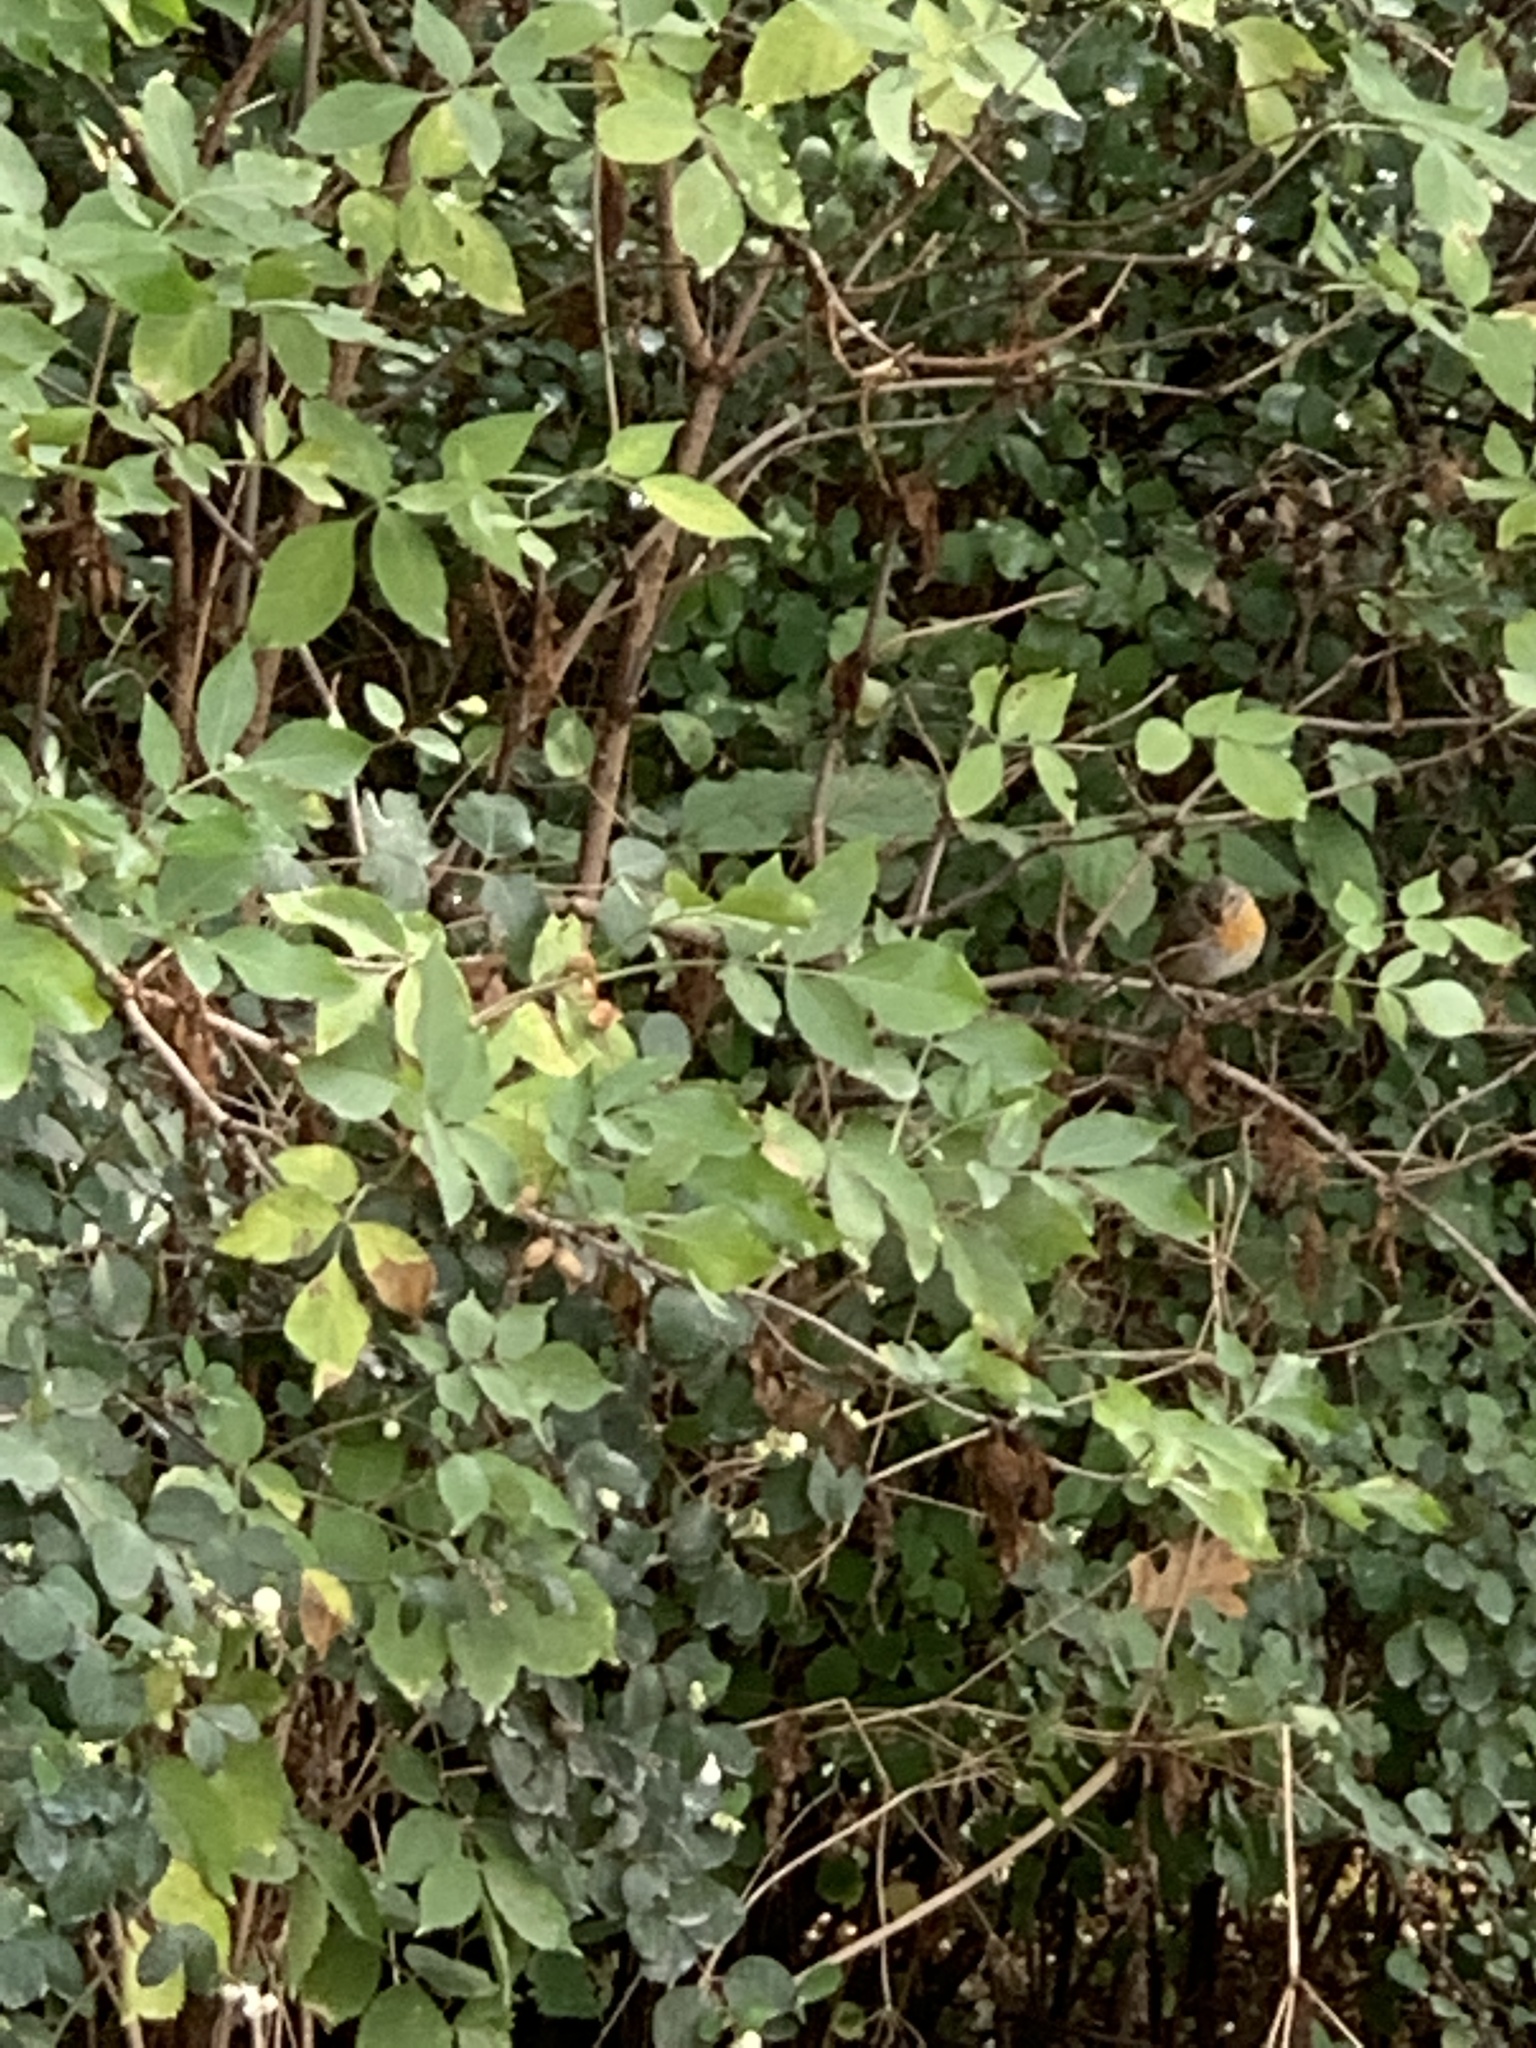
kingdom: Animalia
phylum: Chordata
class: Aves
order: Passeriformes
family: Muscicapidae
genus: Erithacus
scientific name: Erithacus rubecula
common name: European robin
